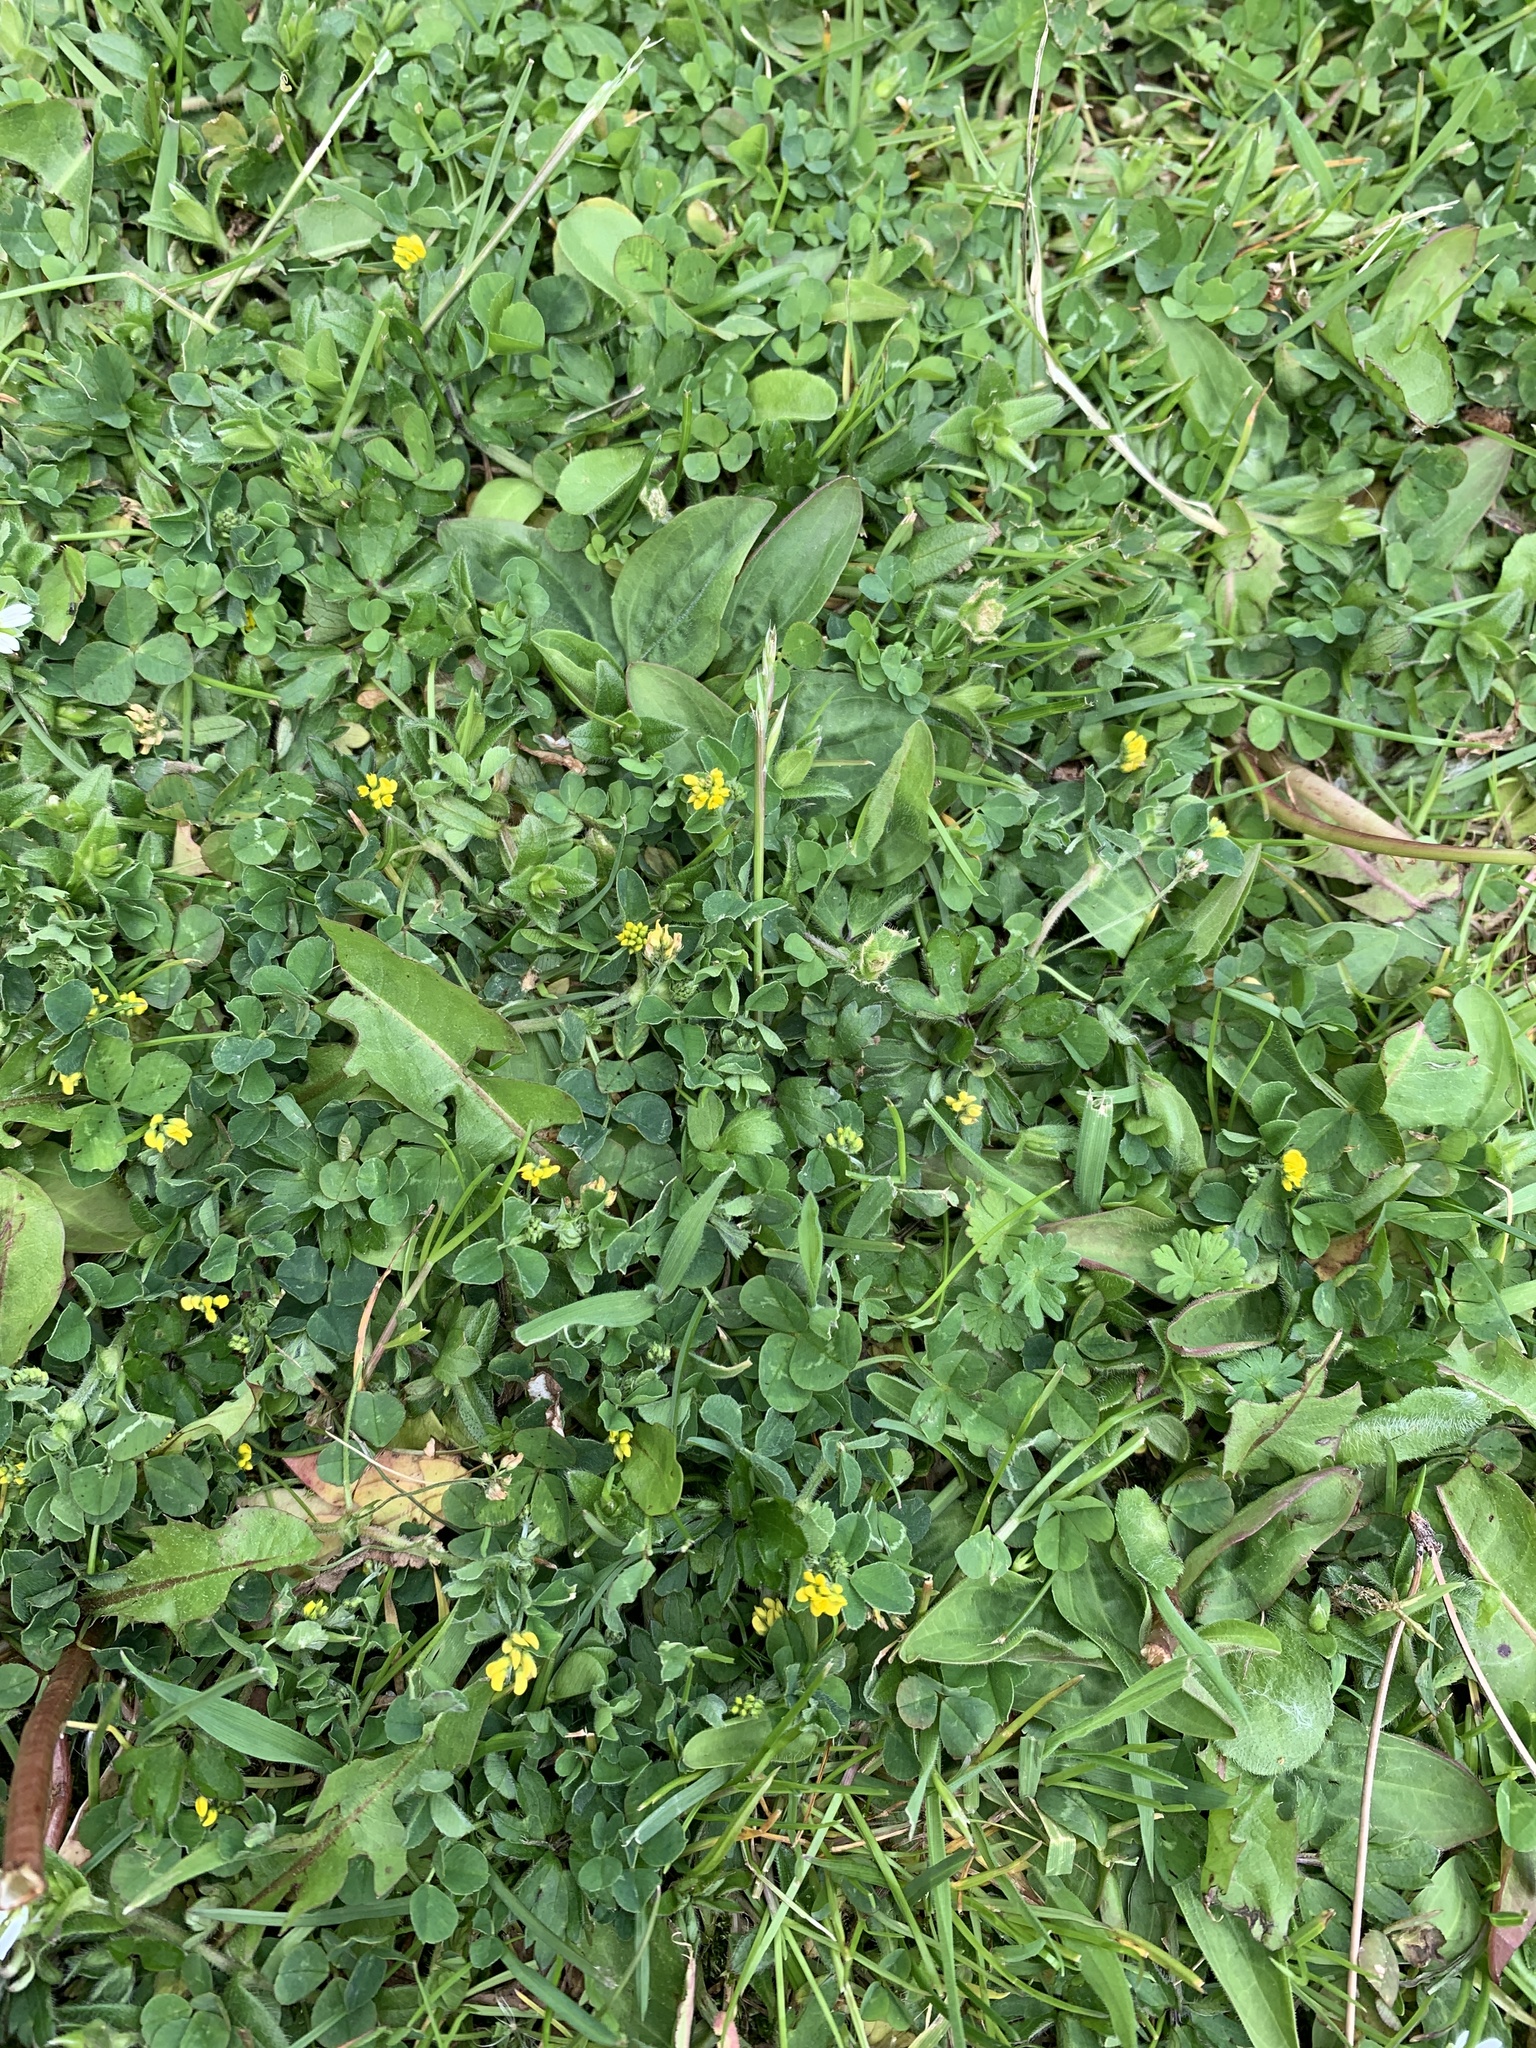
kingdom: Plantae
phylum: Tracheophyta
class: Magnoliopsida
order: Fabales
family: Fabaceae
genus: Medicago
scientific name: Medicago lupulina
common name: Black medick
